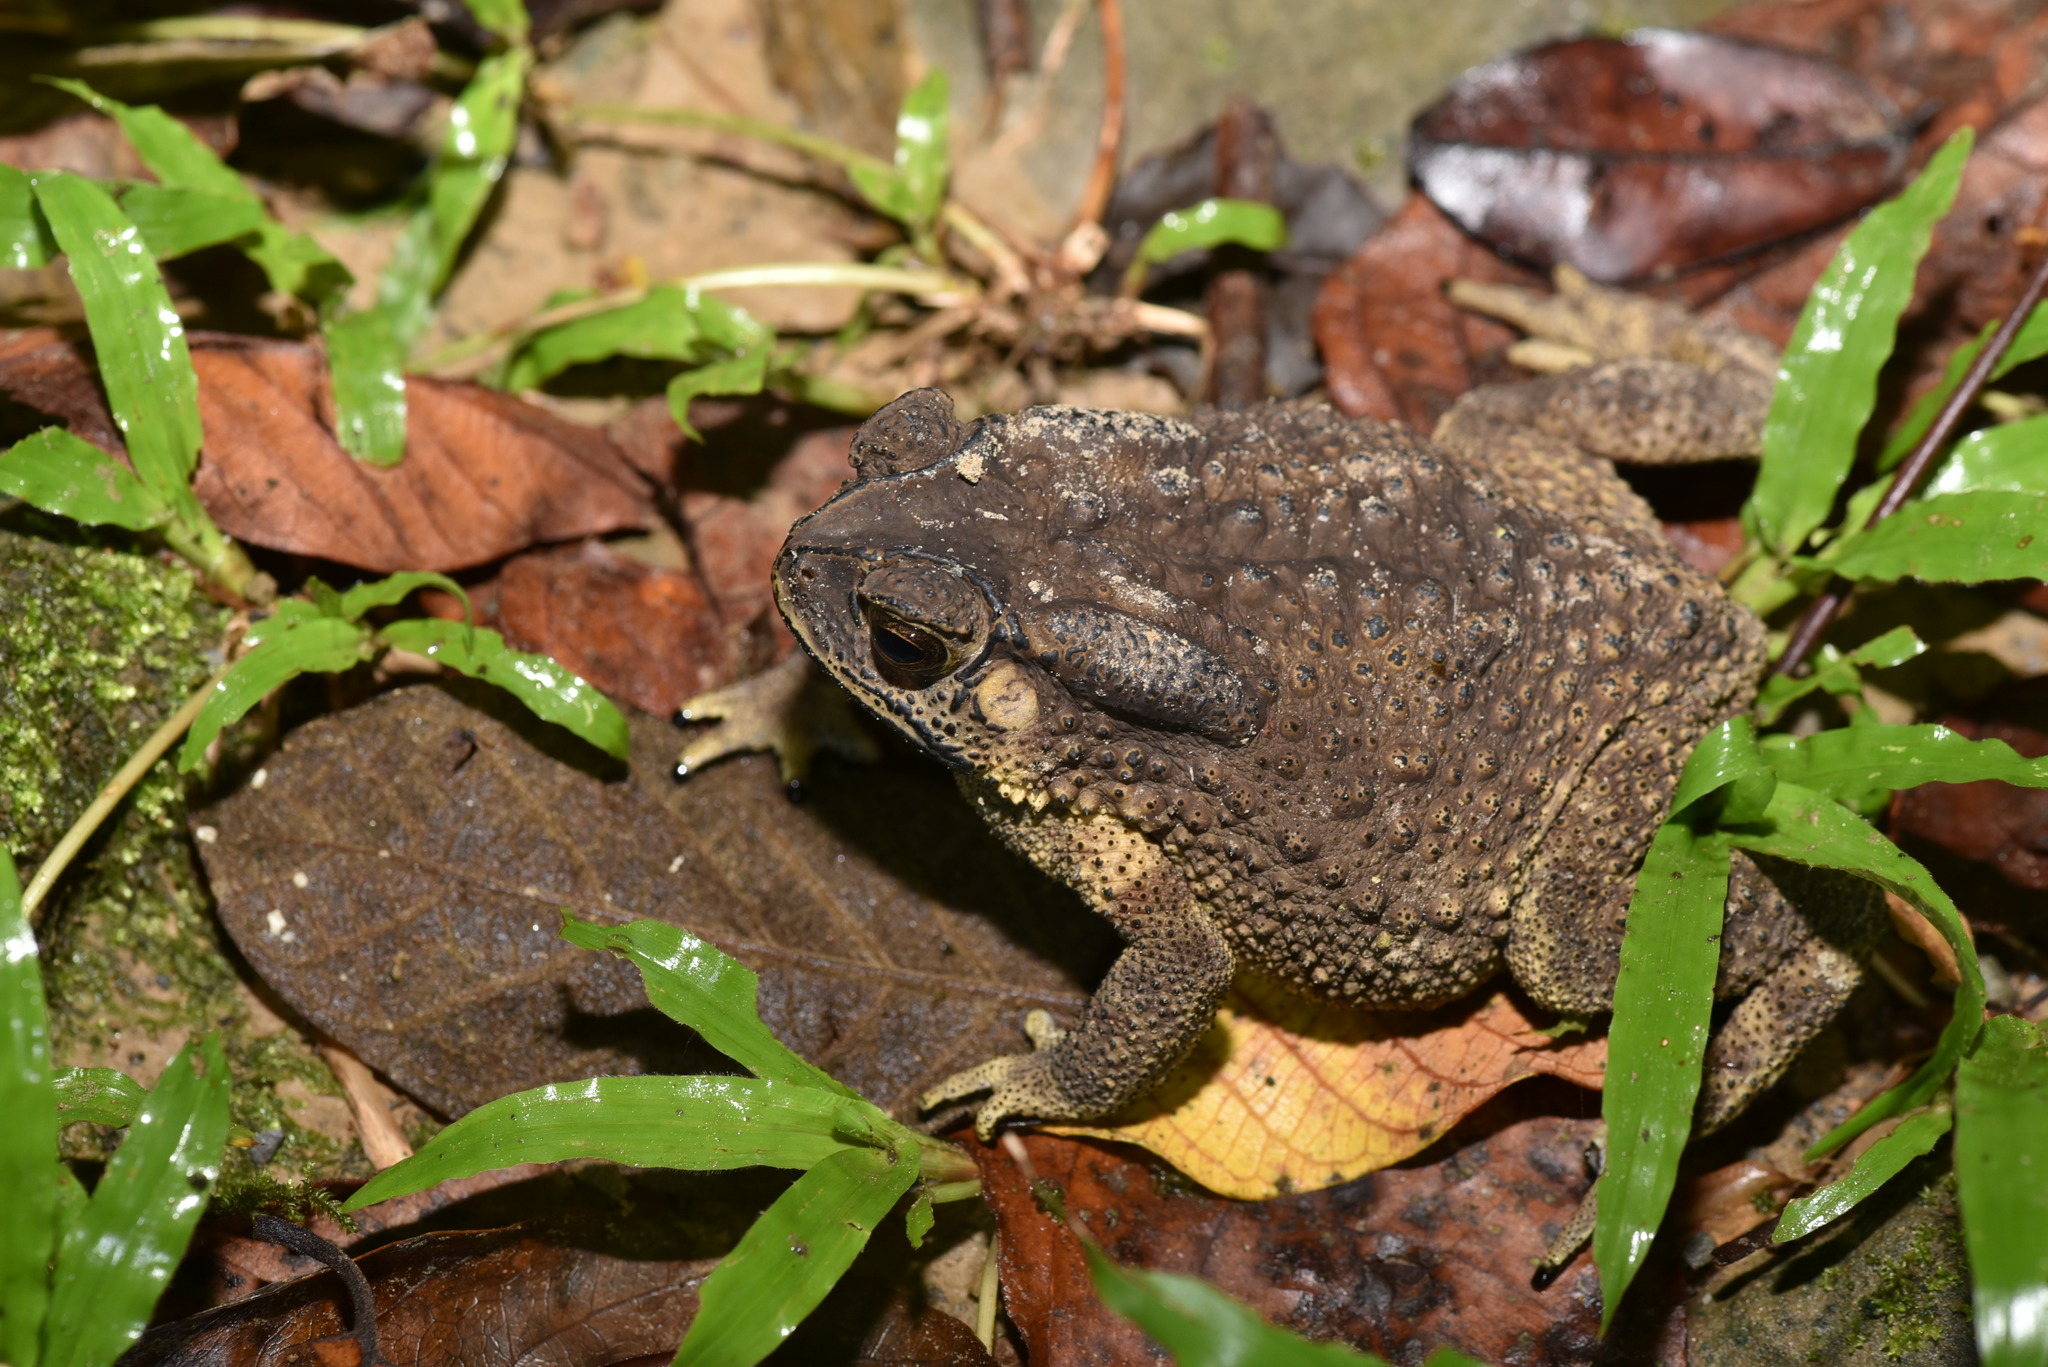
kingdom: Animalia
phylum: Chordata
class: Amphibia
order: Anura
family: Bufonidae
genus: Duttaphrynus
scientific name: Duttaphrynus melanostictus
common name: Common sunda toad
